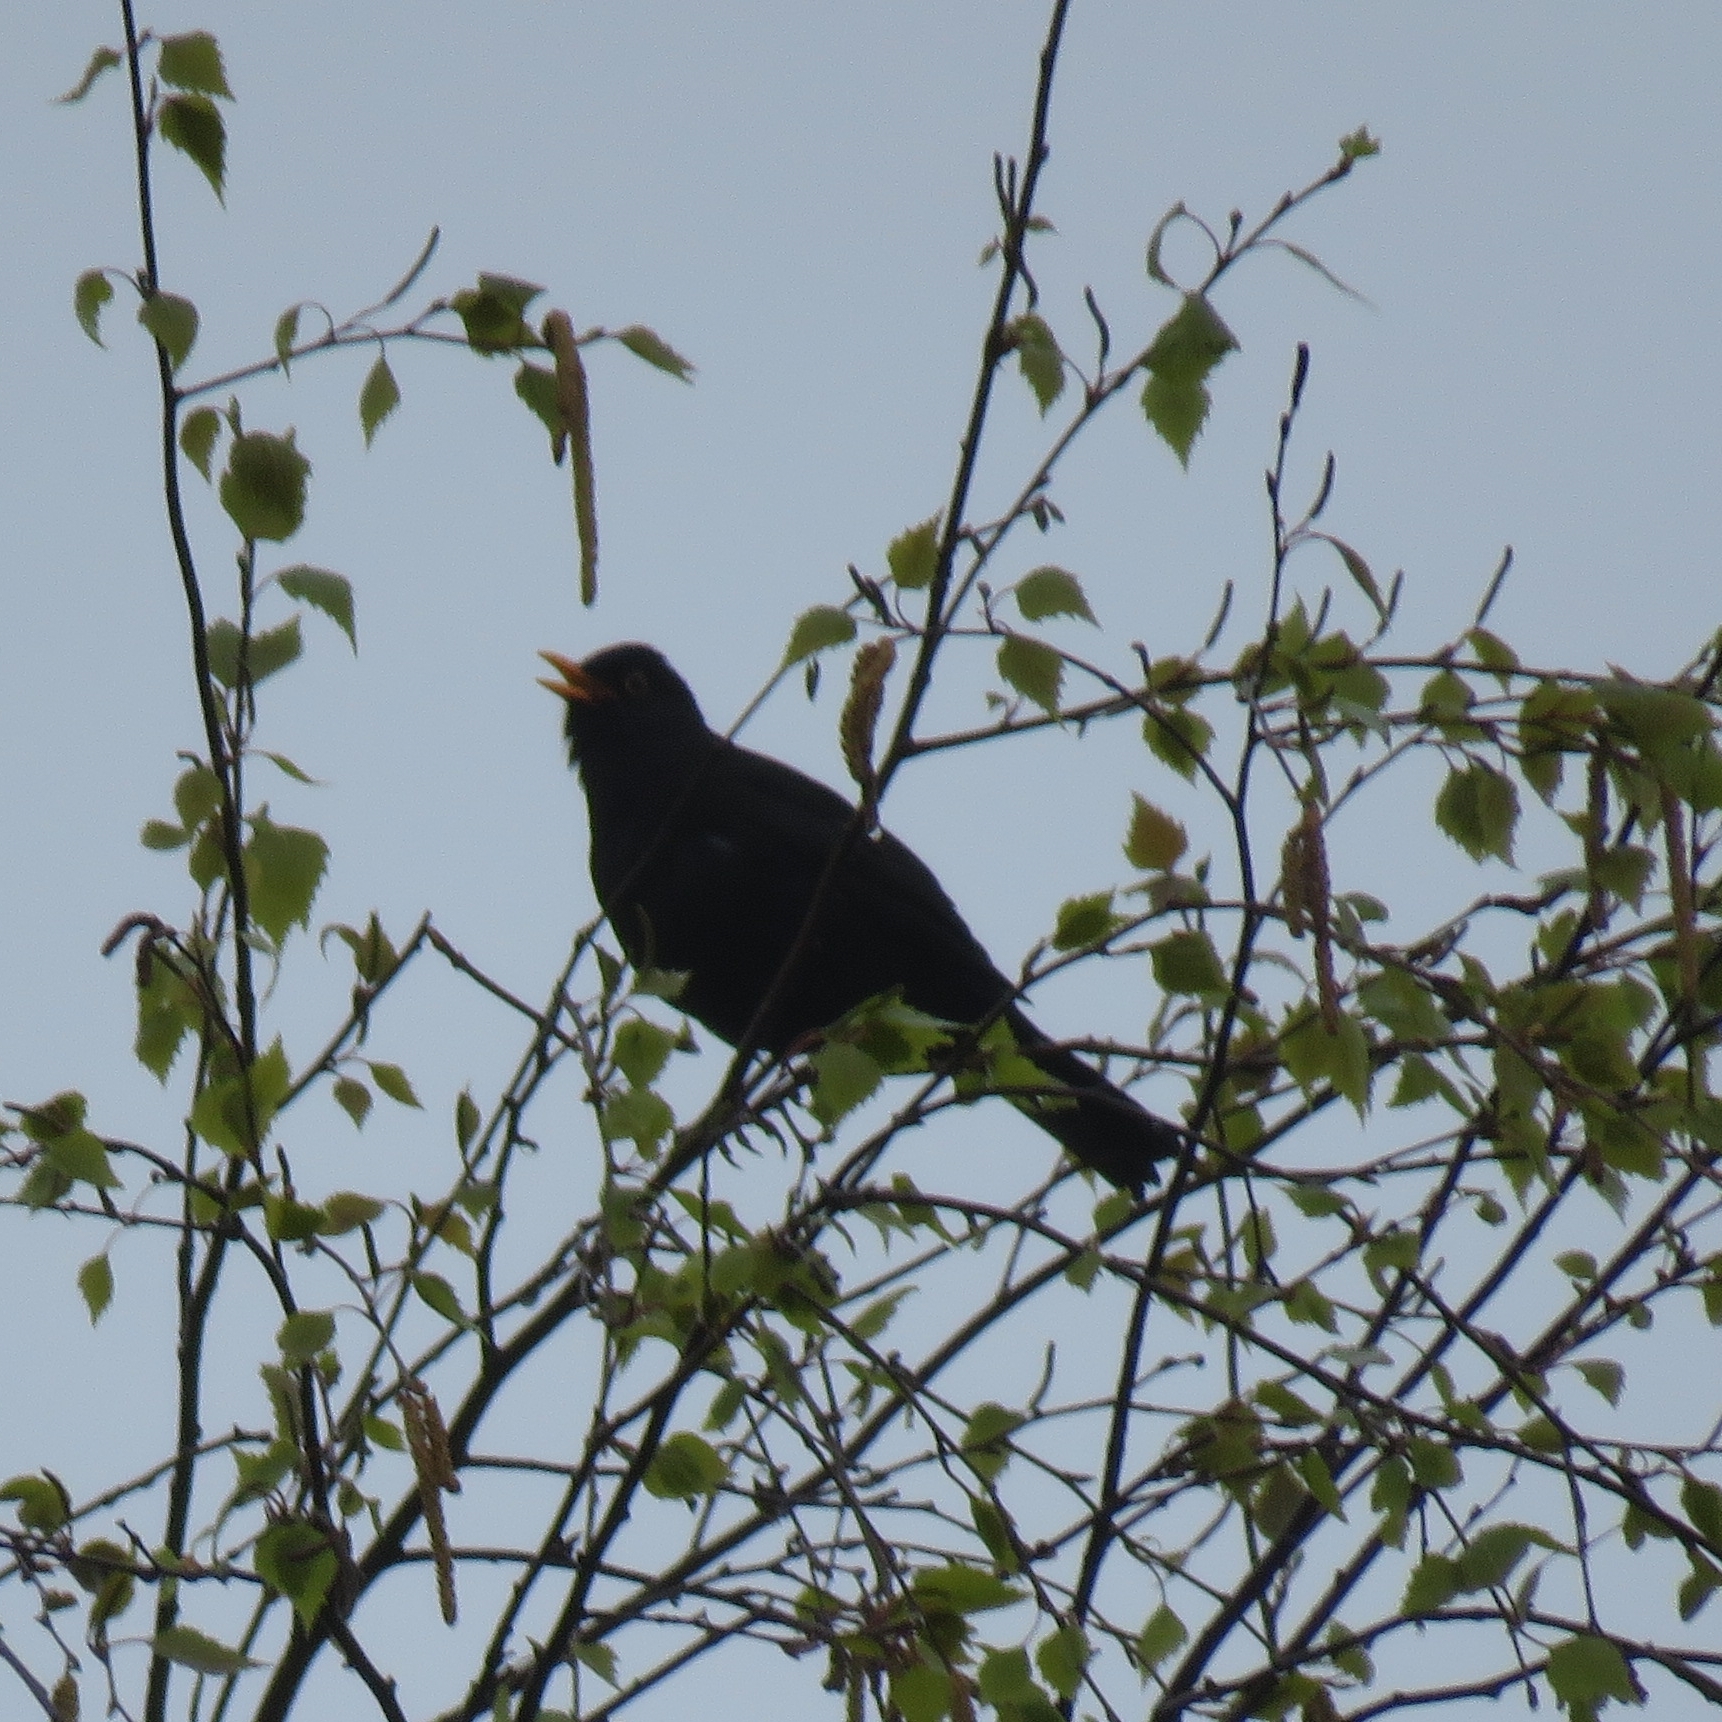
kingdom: Animalia
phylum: Chordata
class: Aves
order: Passeriformes
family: Turdidae
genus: Turdus
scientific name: Turdus merula
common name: Common blackbird
